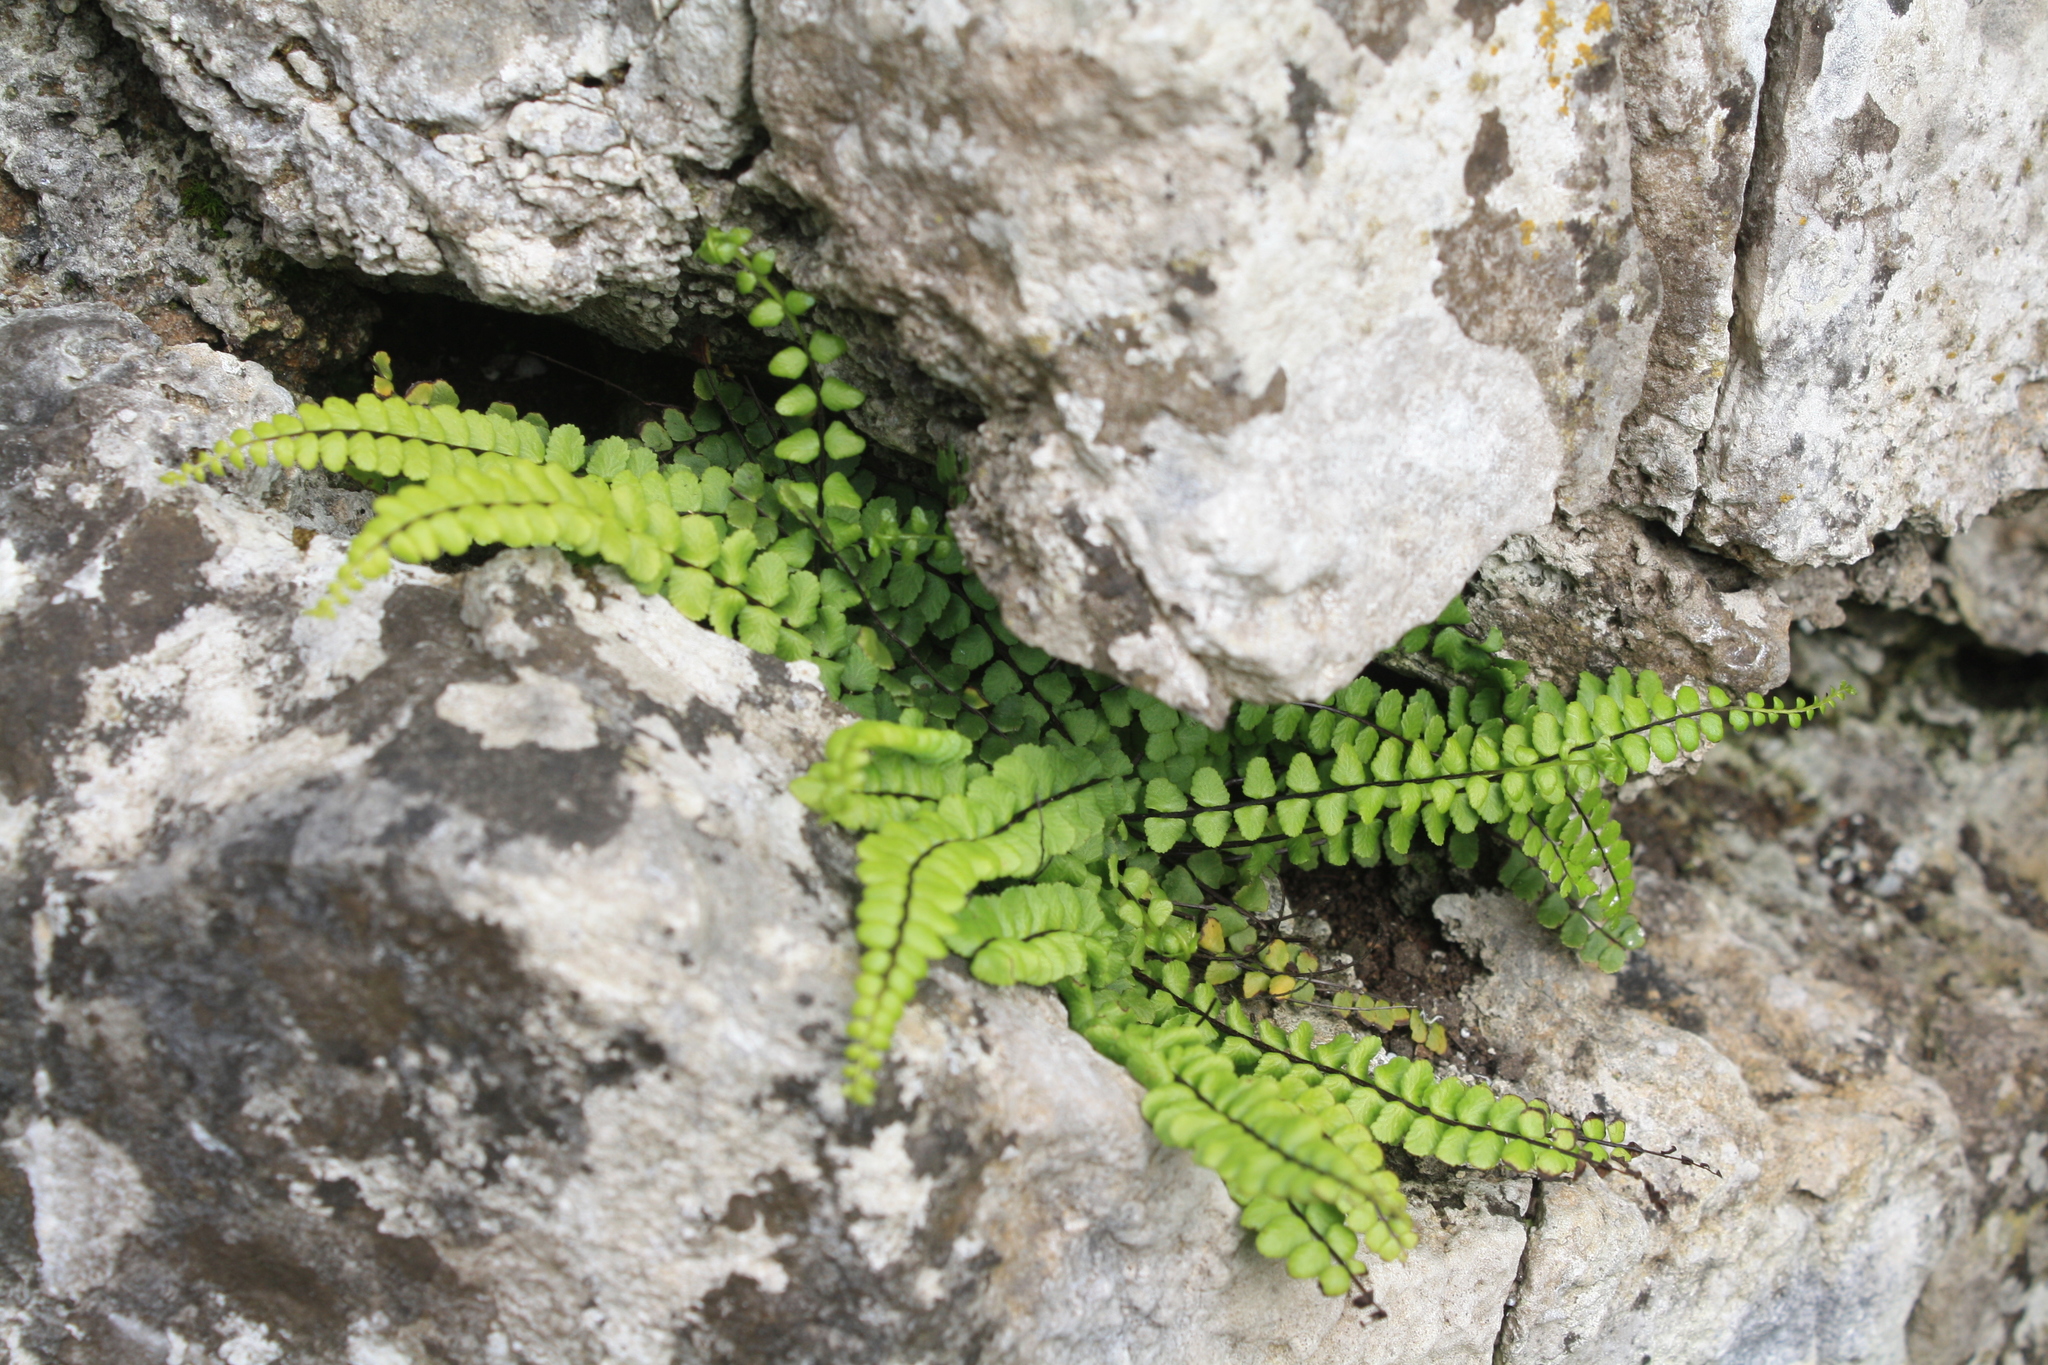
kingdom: Plantae
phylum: Tracheophyta
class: Polypodiopsida
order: Polypodiales
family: Aspleniaceae
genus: Asplenium
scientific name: Asplenium trichomanes
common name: Maidenhair spleenwort
